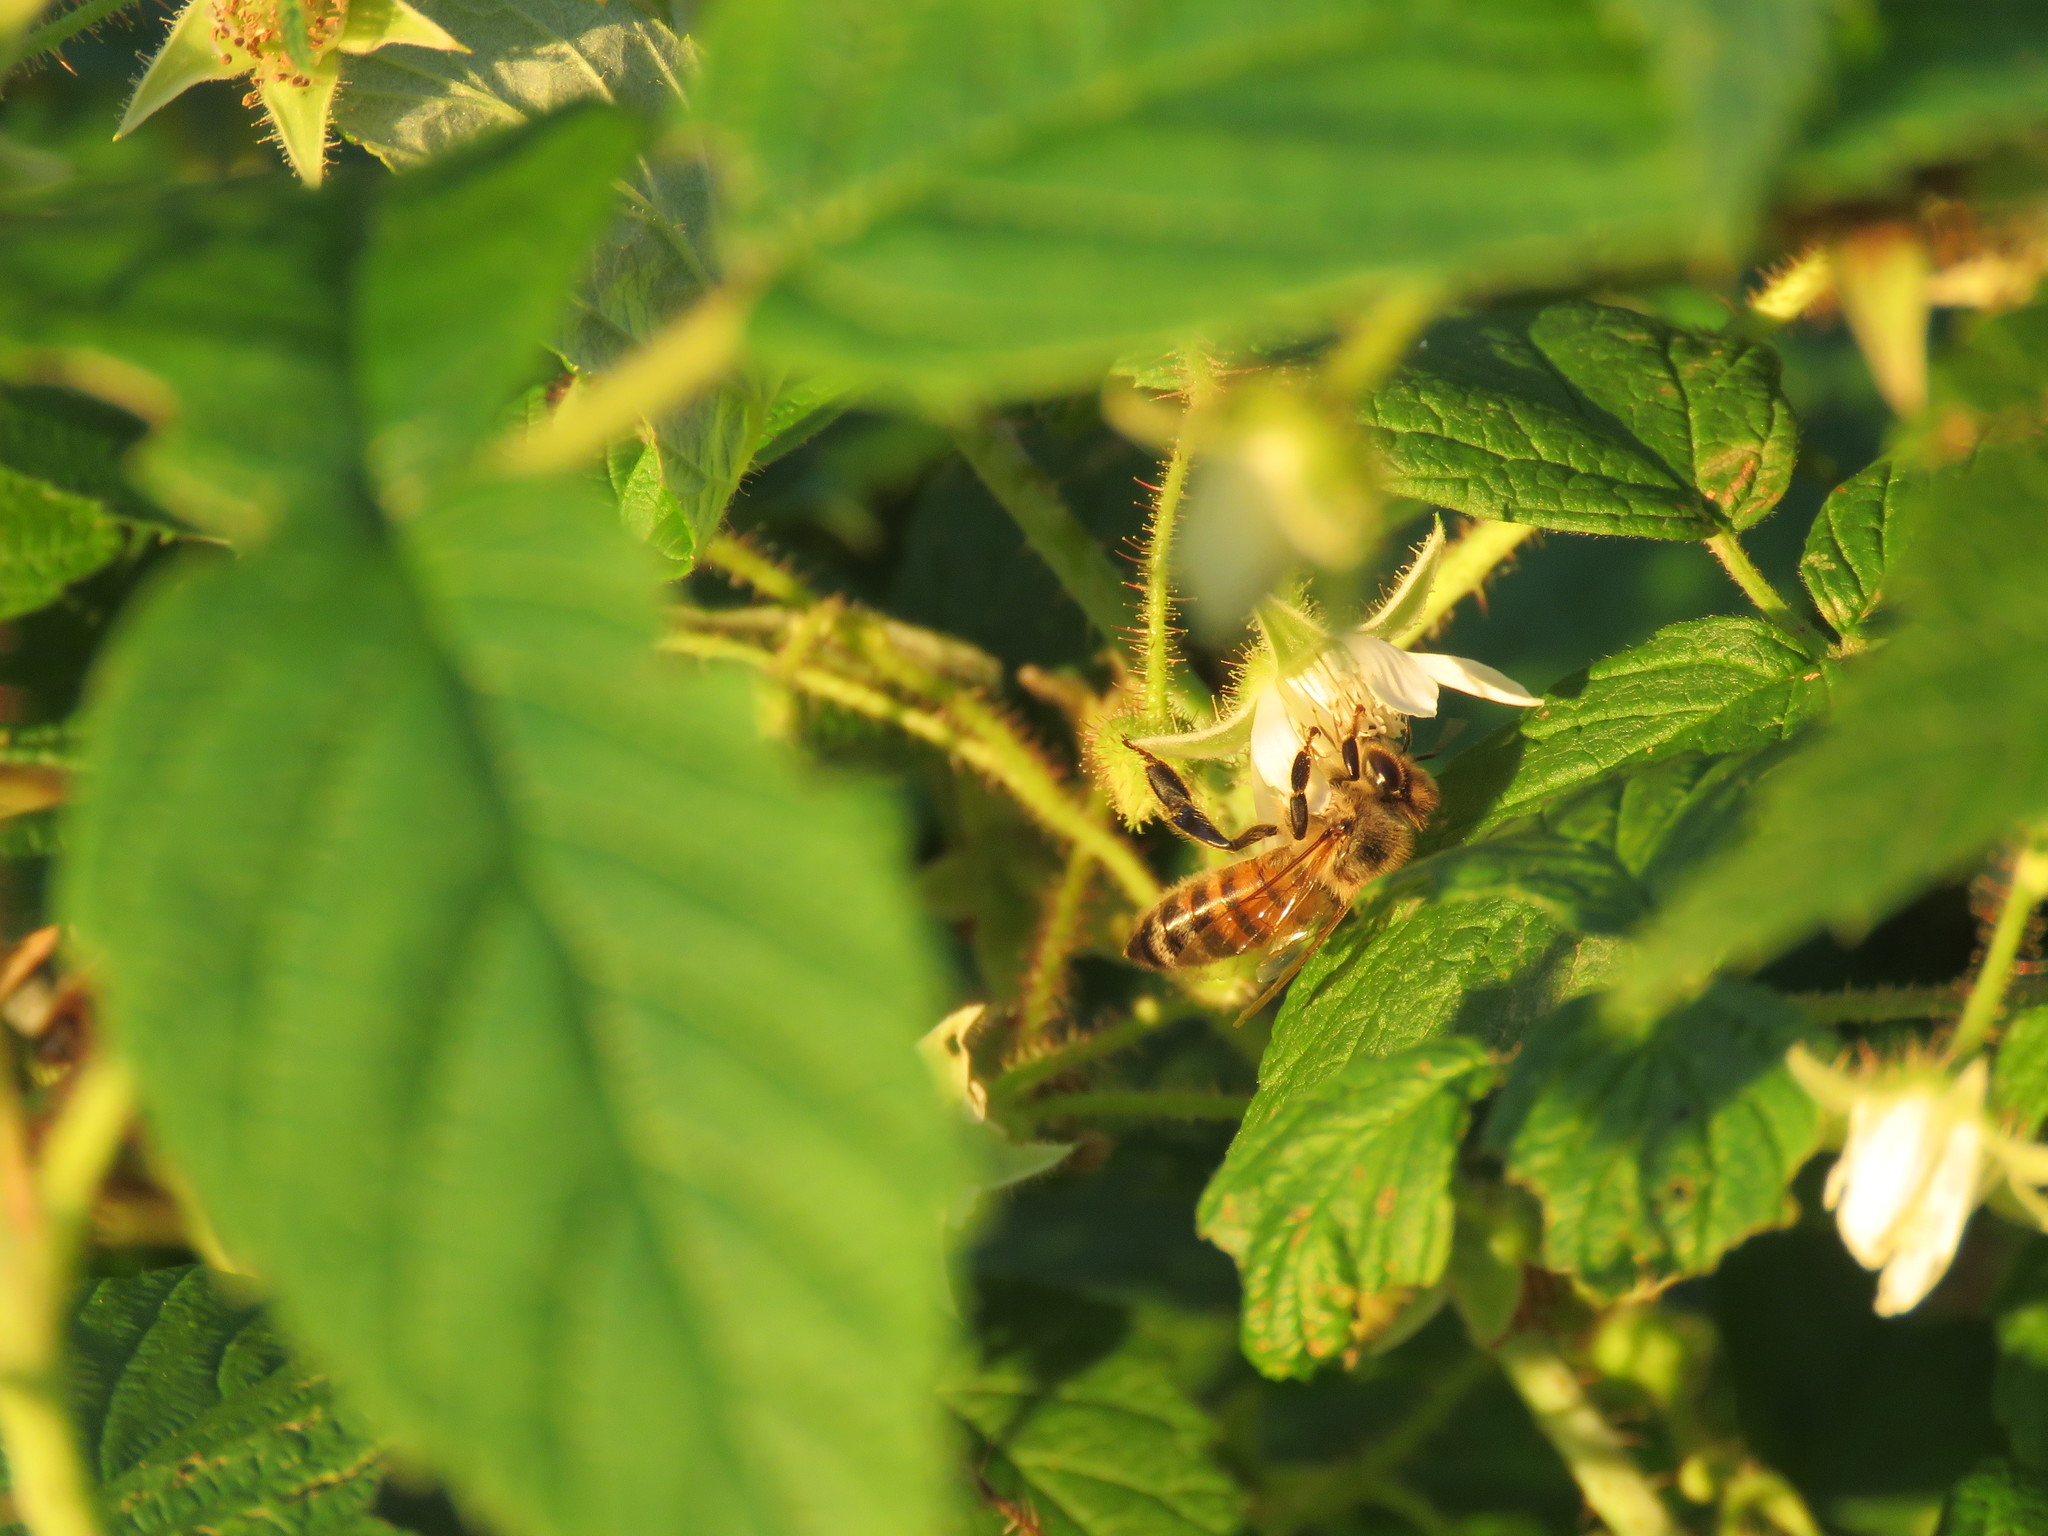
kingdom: Animalia
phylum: Arthropoda
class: Insecta
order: Hymenoptera
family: Apidae
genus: Apis
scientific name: Apis mellifera
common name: Honey bee
